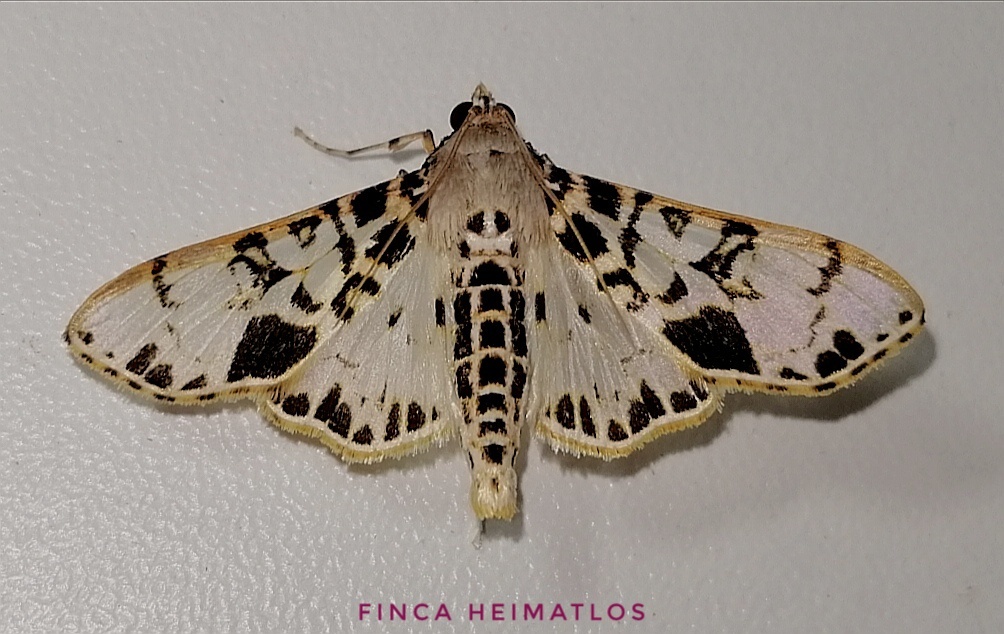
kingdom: Animalia
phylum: Arthropoda
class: Insecta
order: Lepidoptera
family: Crambidae
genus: Azochis
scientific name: Azochis pieralis
